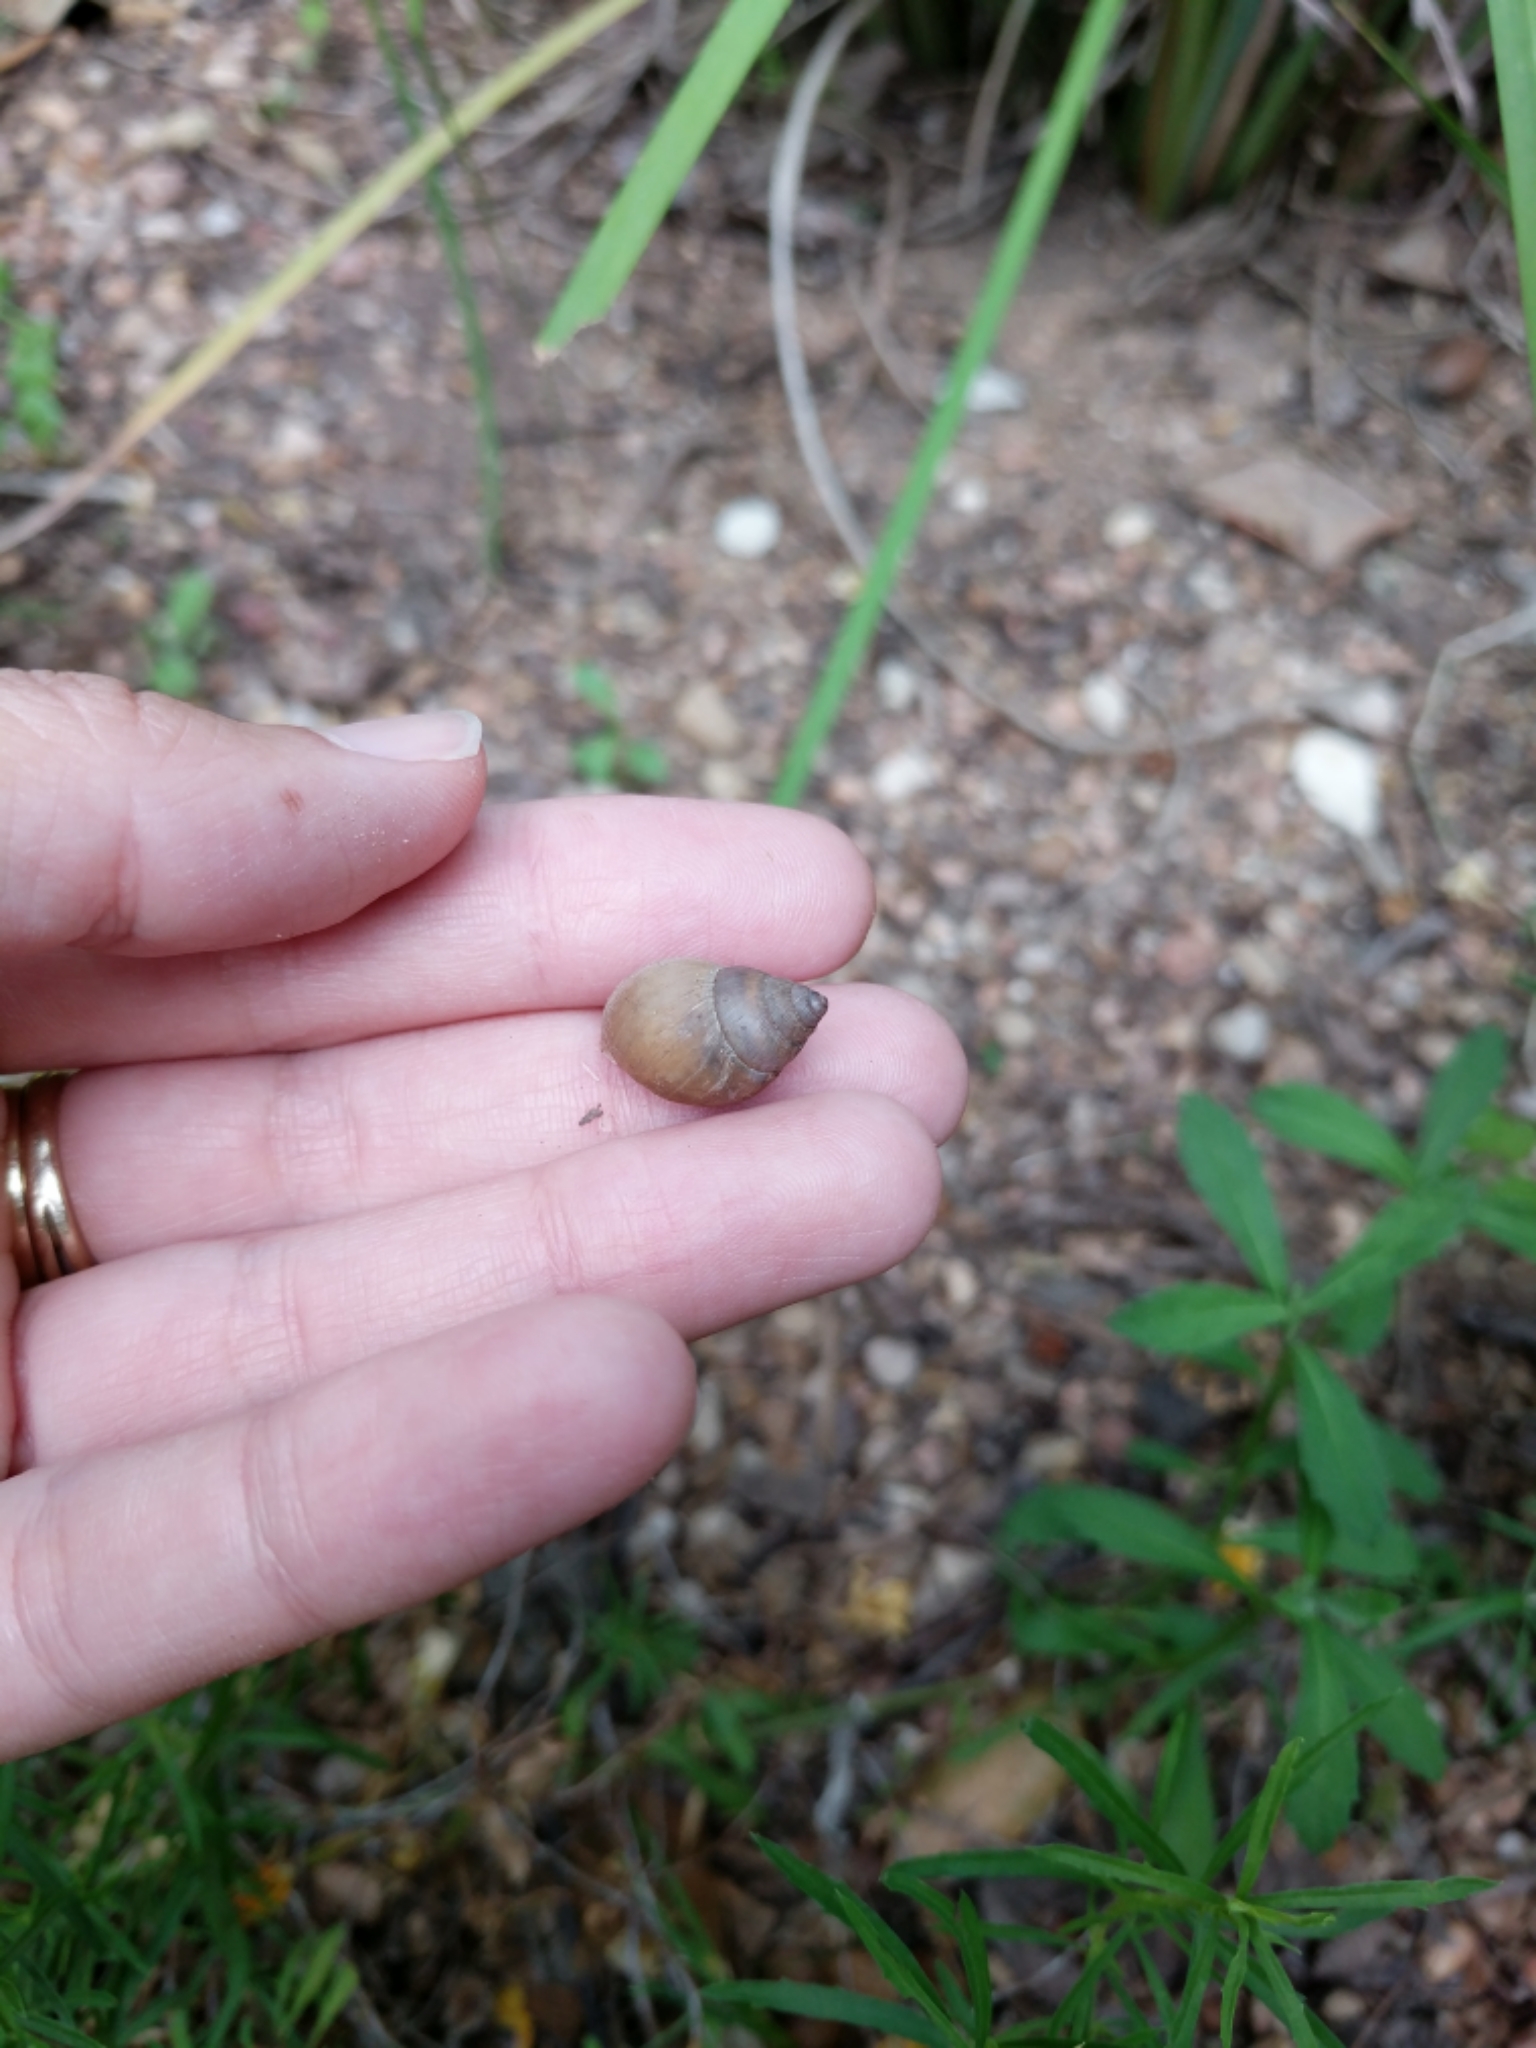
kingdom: Animalia
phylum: Mollusca
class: Gastropoda
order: Stylommatophora
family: Bulimulidae
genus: Rabdotus
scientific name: Rabdotus mooreanus
